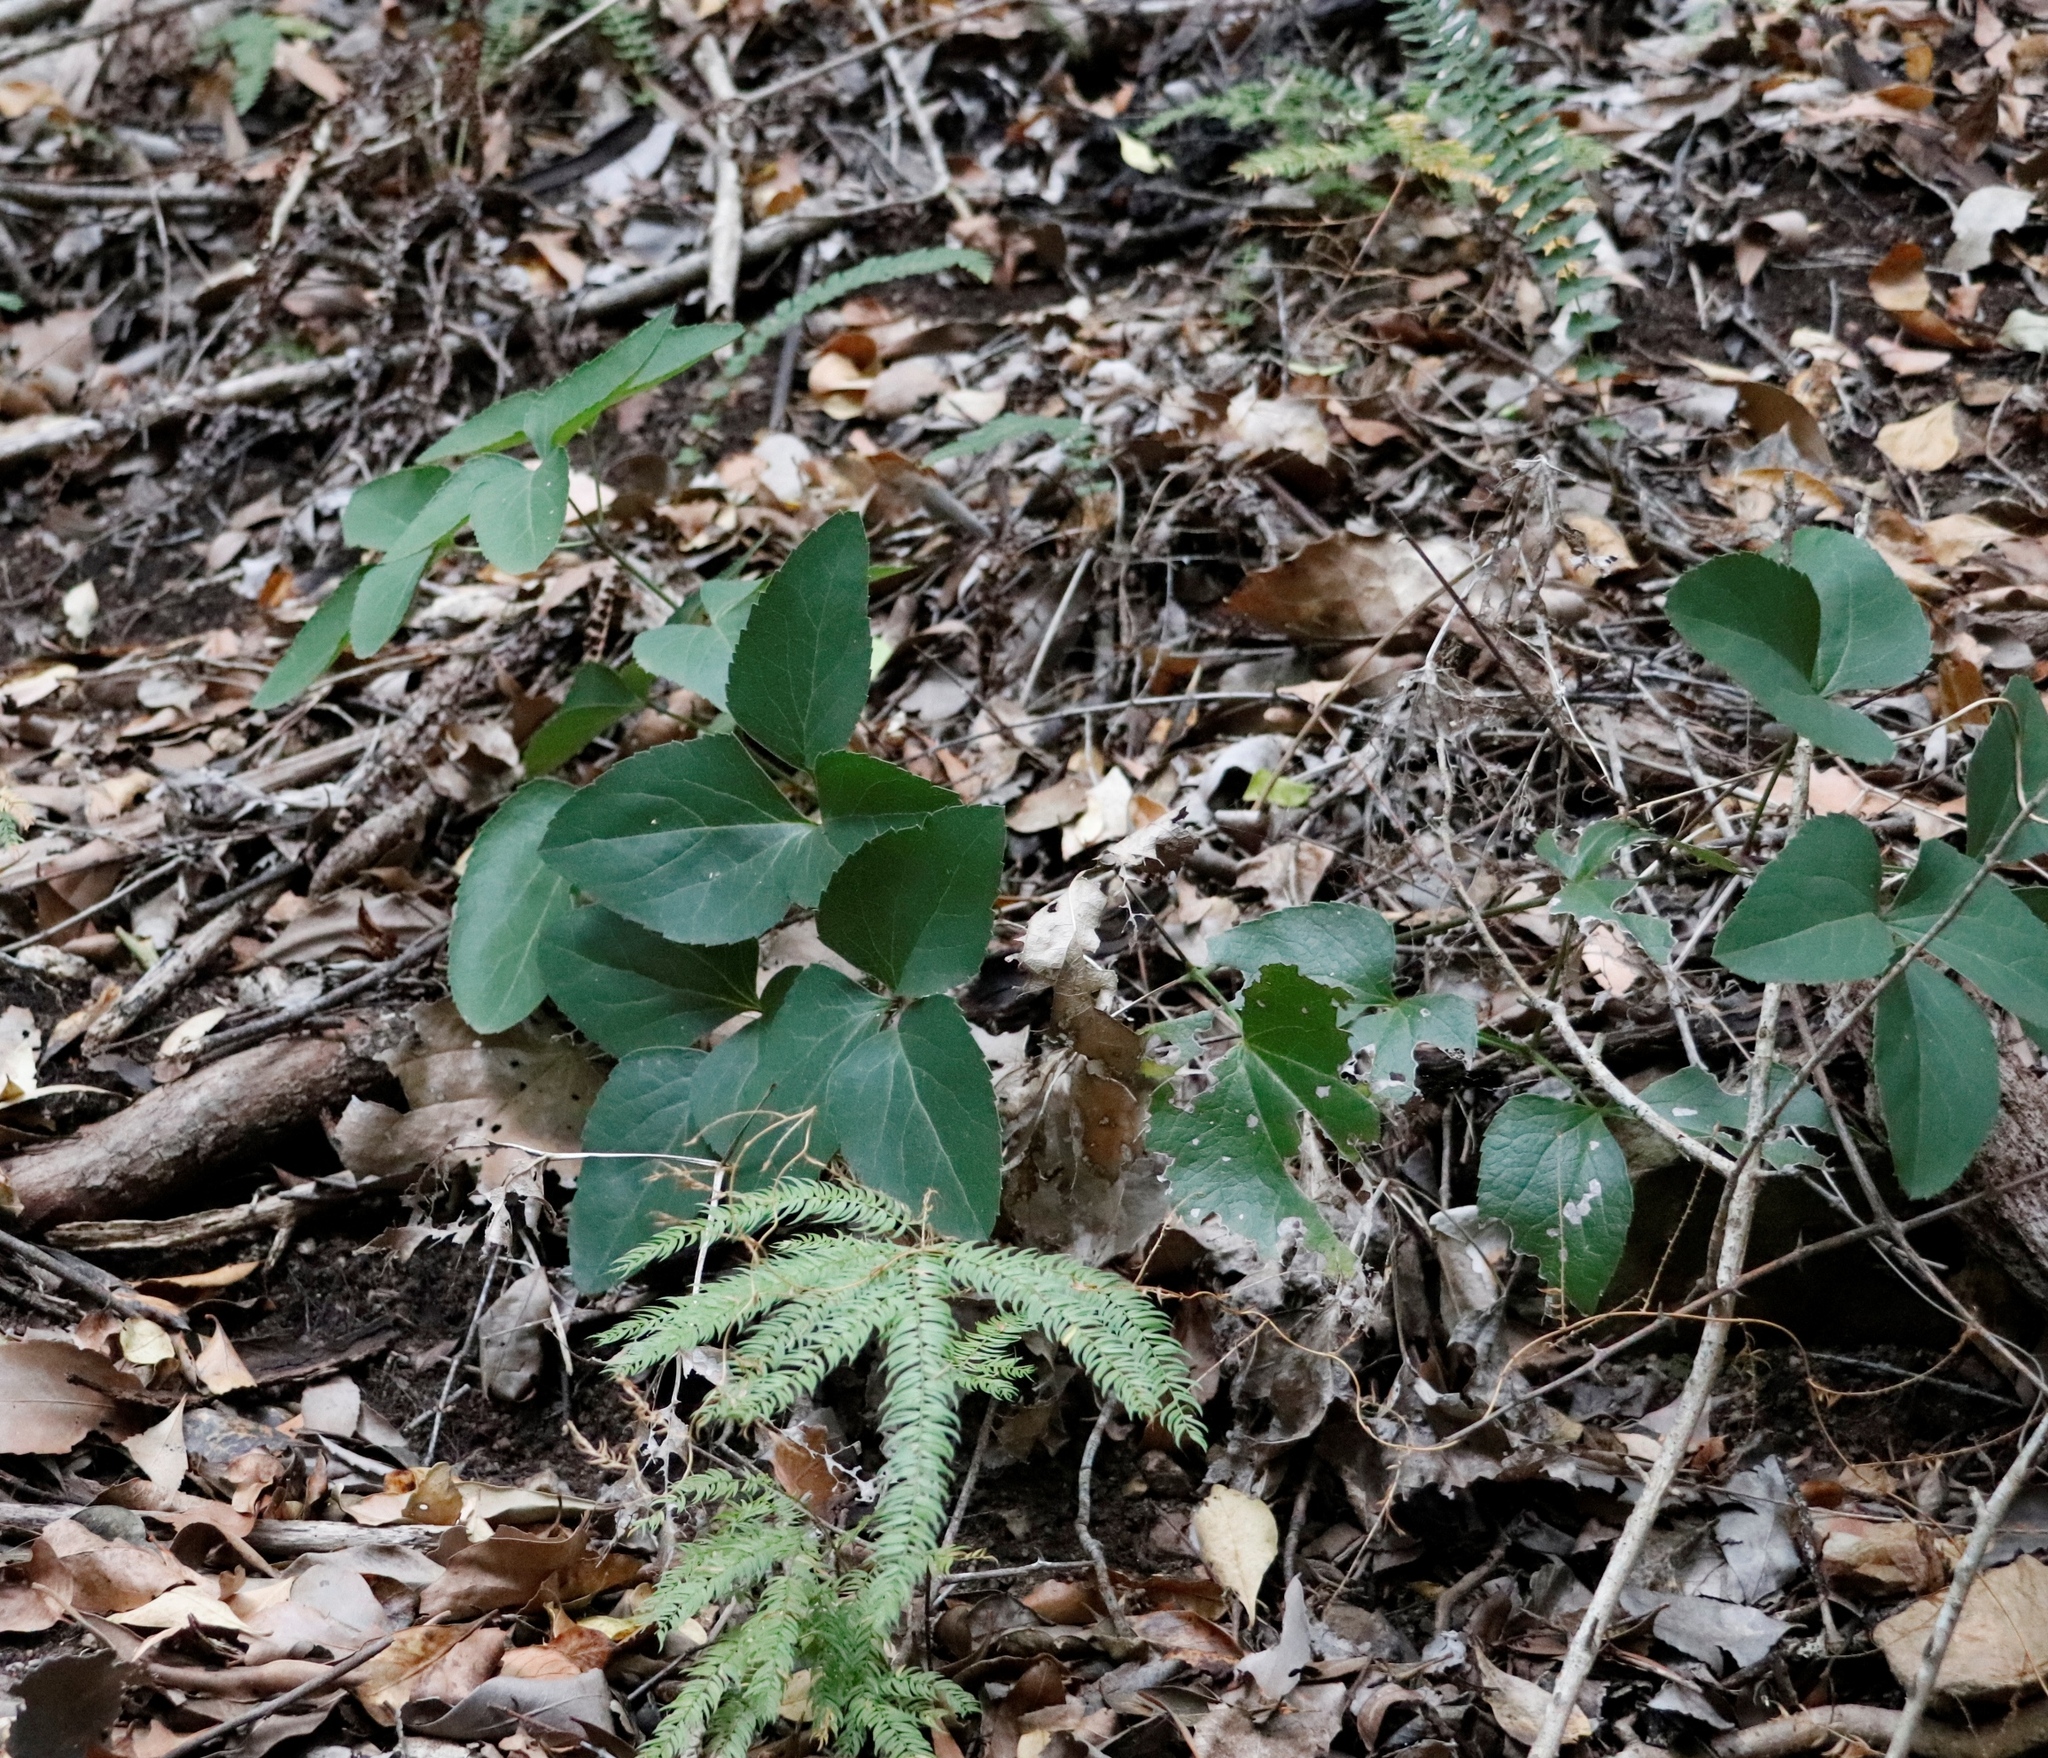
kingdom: Plantae
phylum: Tracheophyta
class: Magnoliopsida
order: Ranunculales
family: Ranunculaceae
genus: Knowltonia
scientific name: Knowltonia vesicatoria
